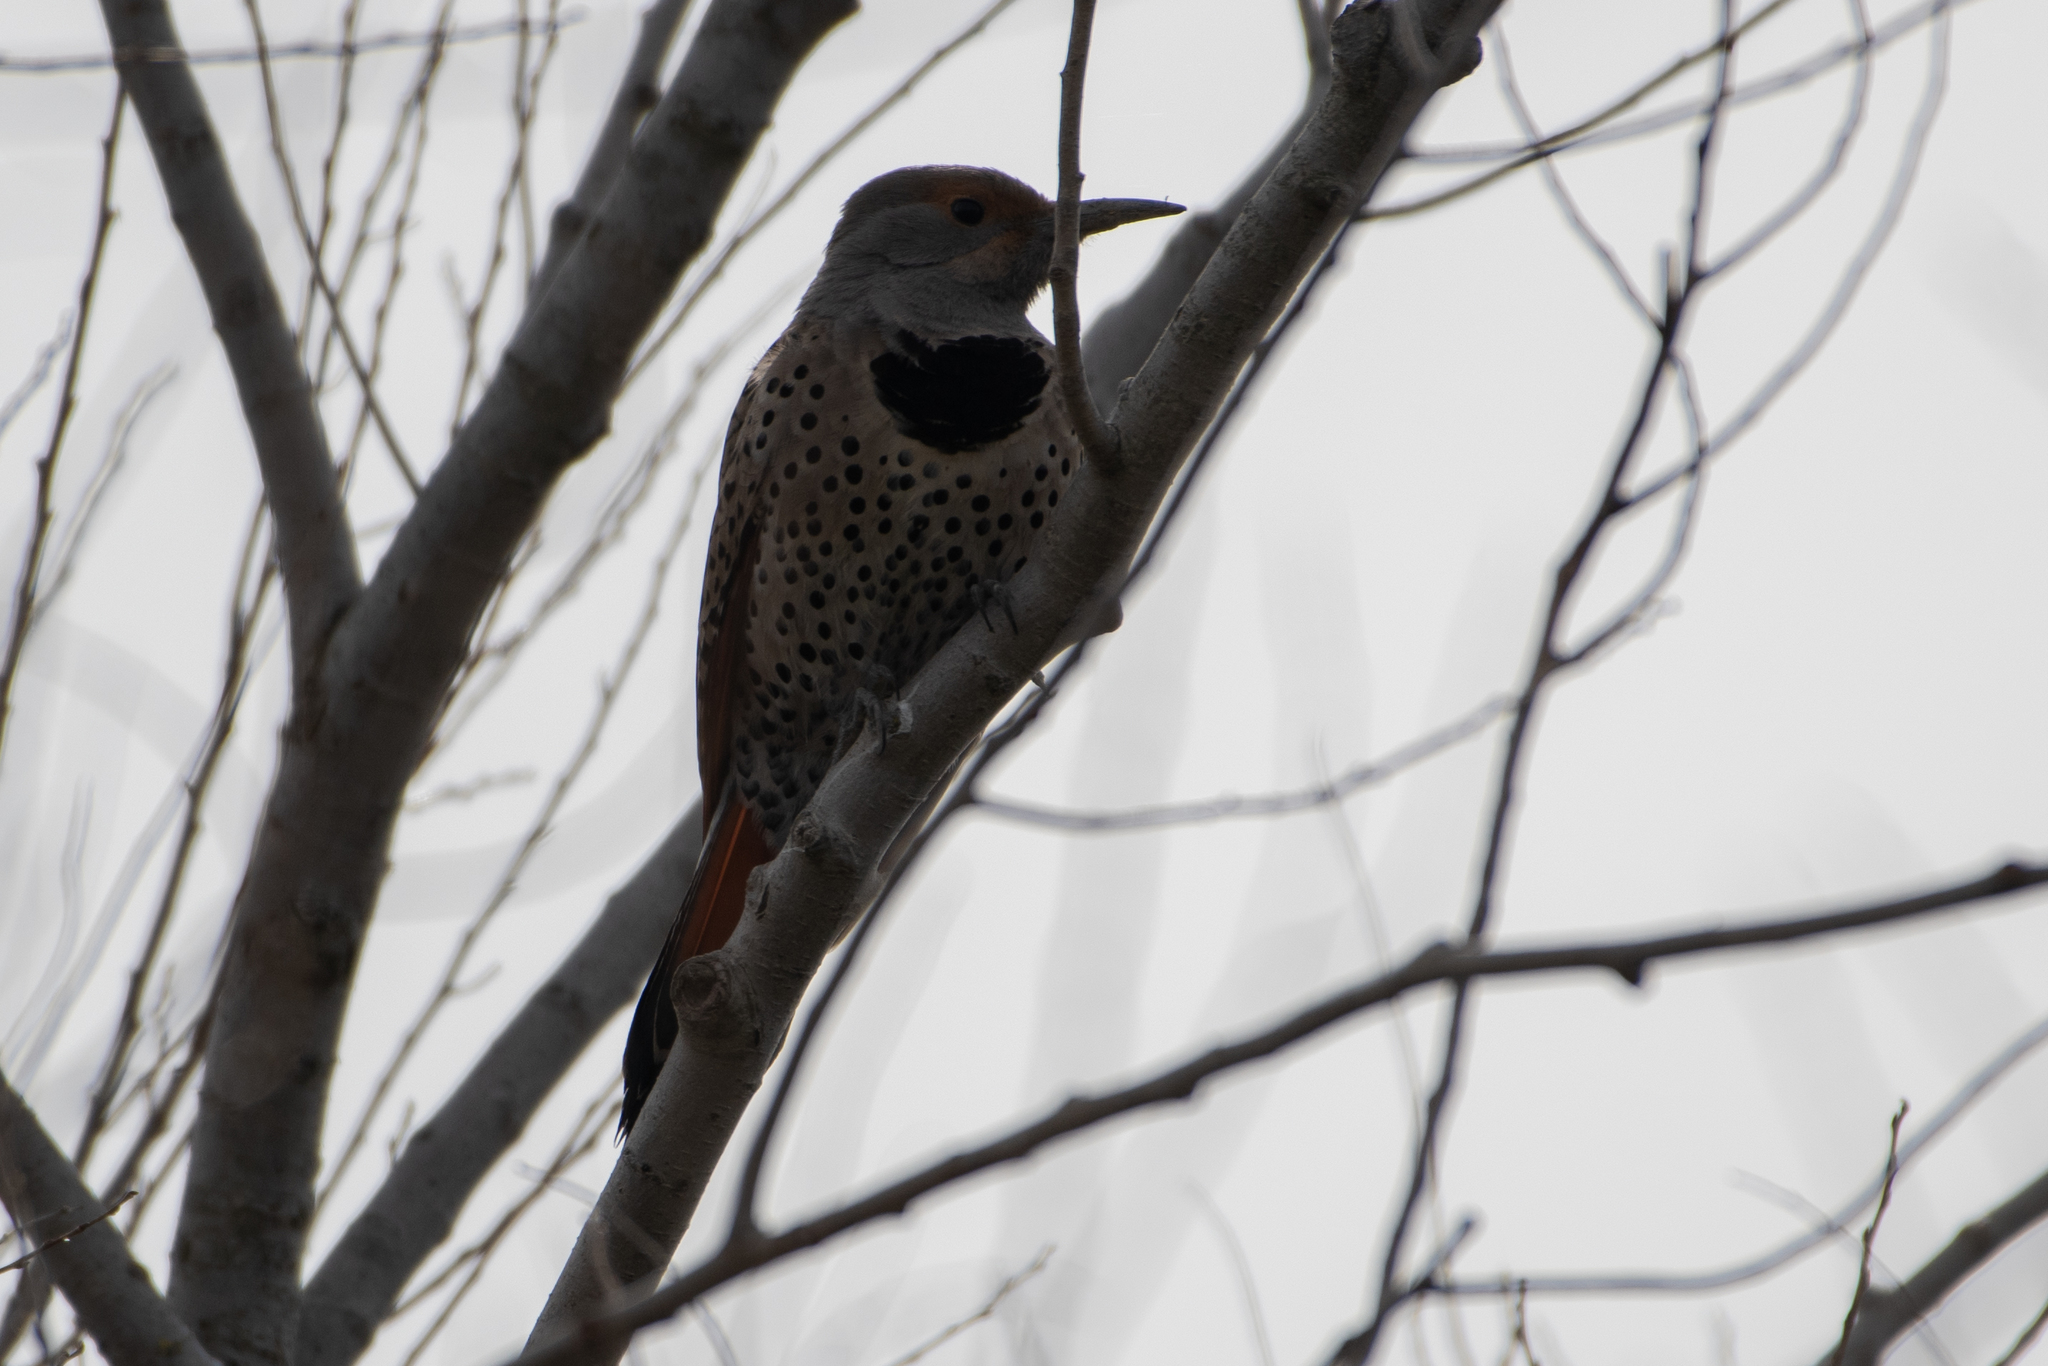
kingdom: Animalia
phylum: Chordata
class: Aves
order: Piciformes
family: Picidae
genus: Colaptes
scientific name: Colaptes auratus
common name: Northern flicker
